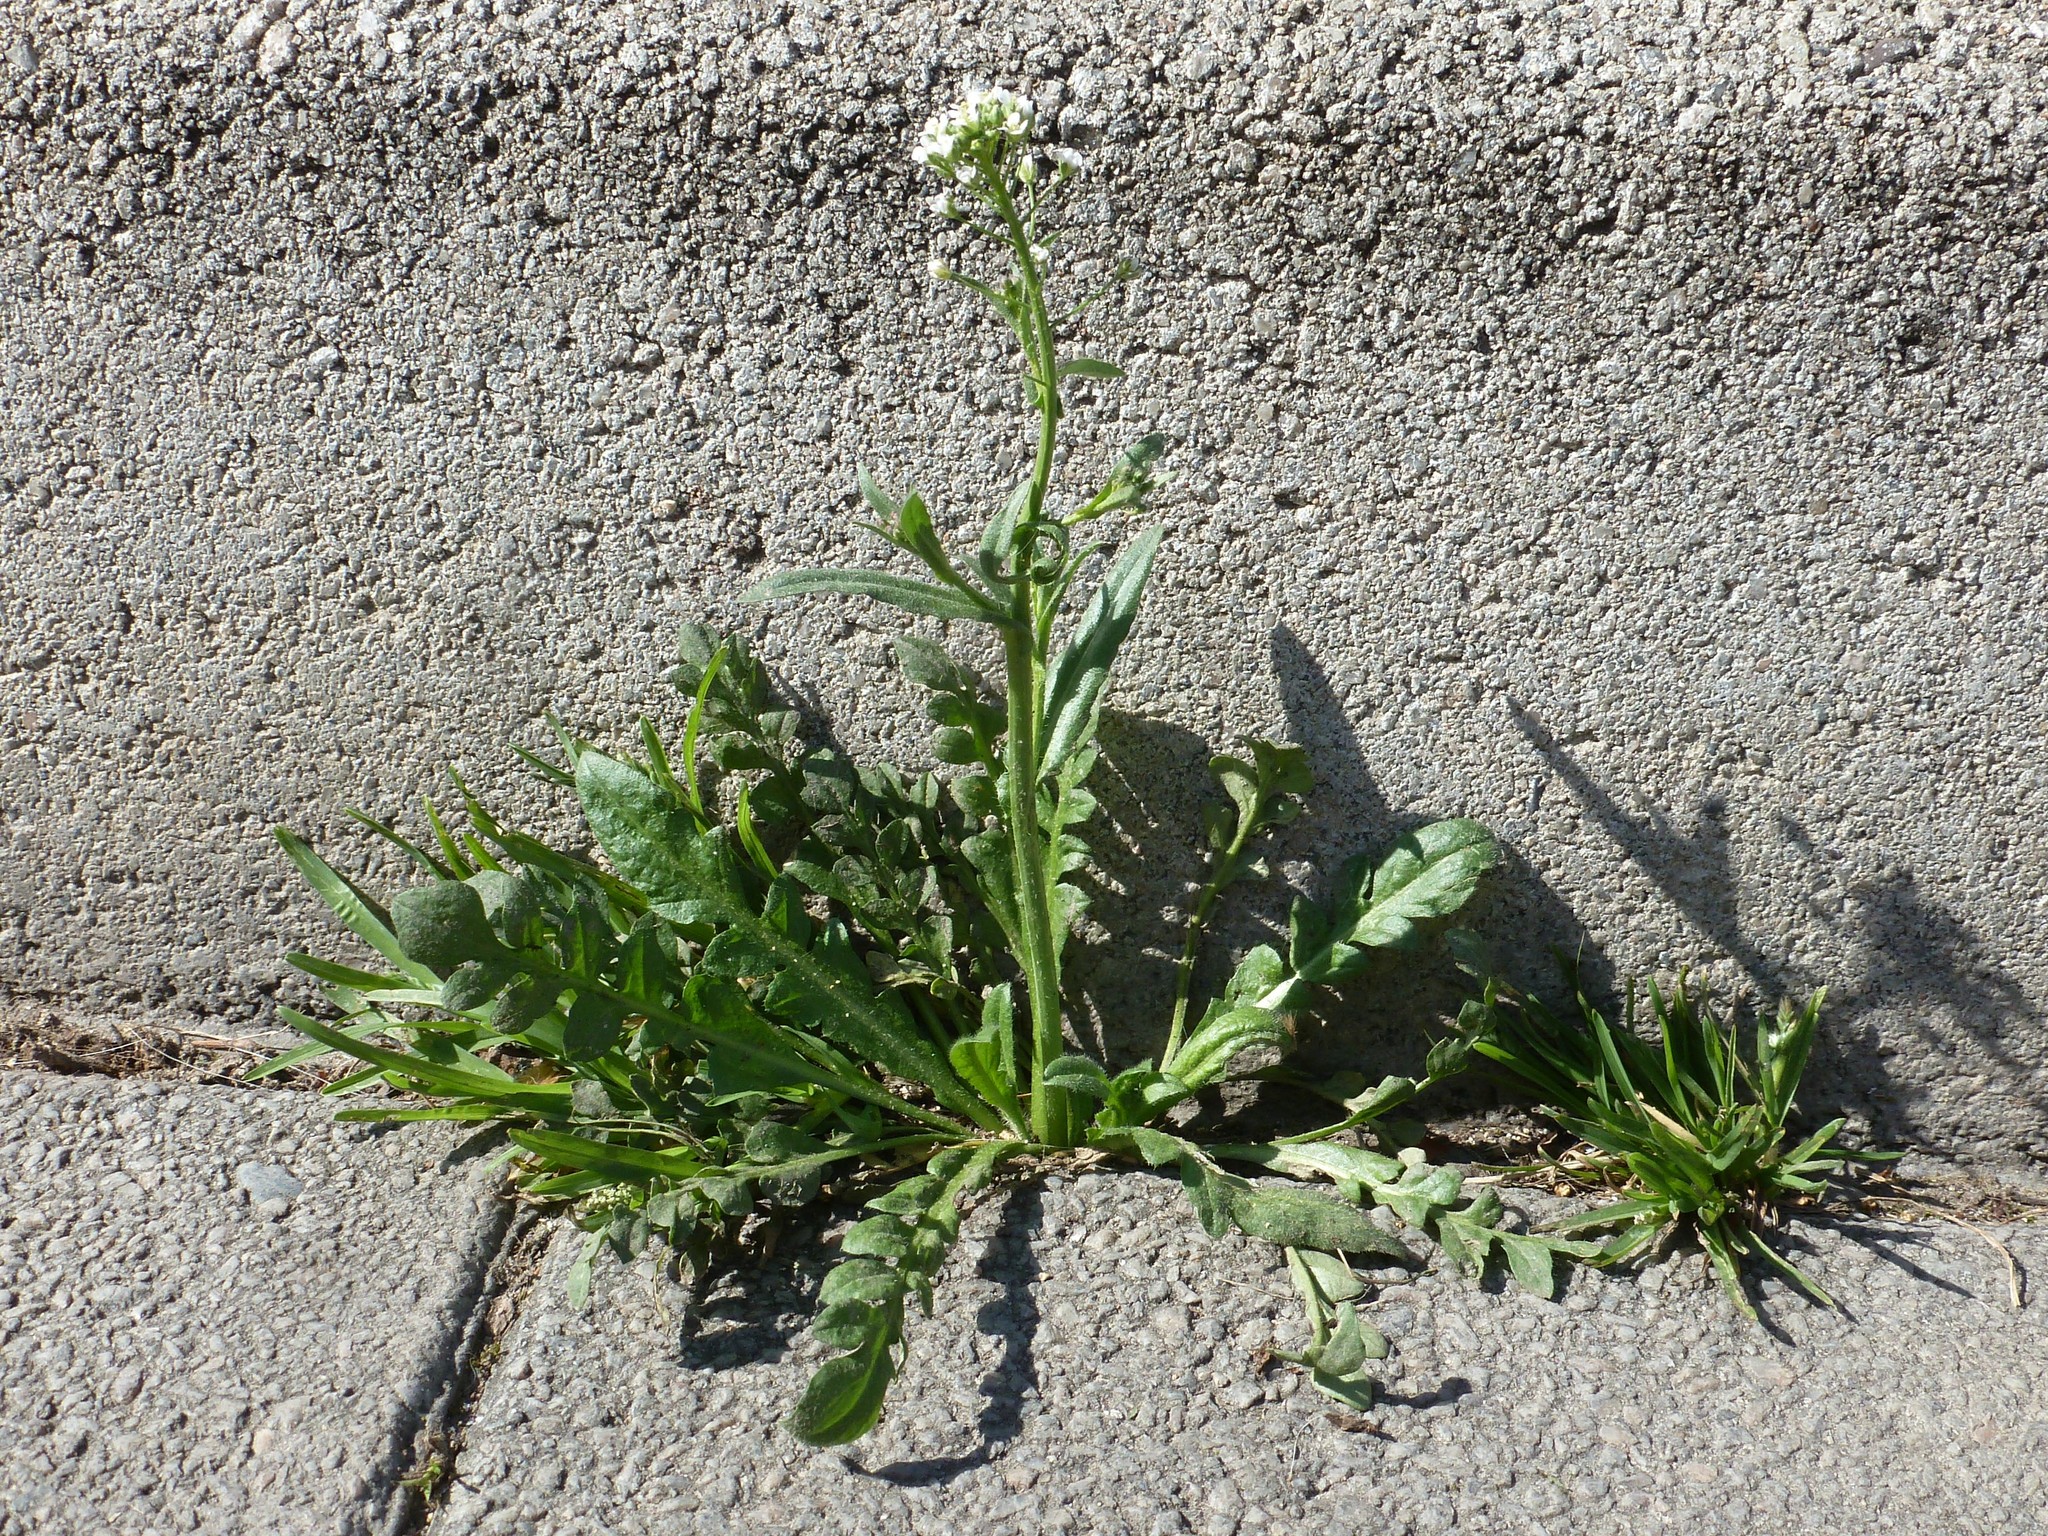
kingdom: Plantae
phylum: Tracheophyta
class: Magnoliopsida
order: Brassicales
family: Brassicaceae
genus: Capsella
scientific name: Capsella bursa-pastoris
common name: Shepherd's purse
